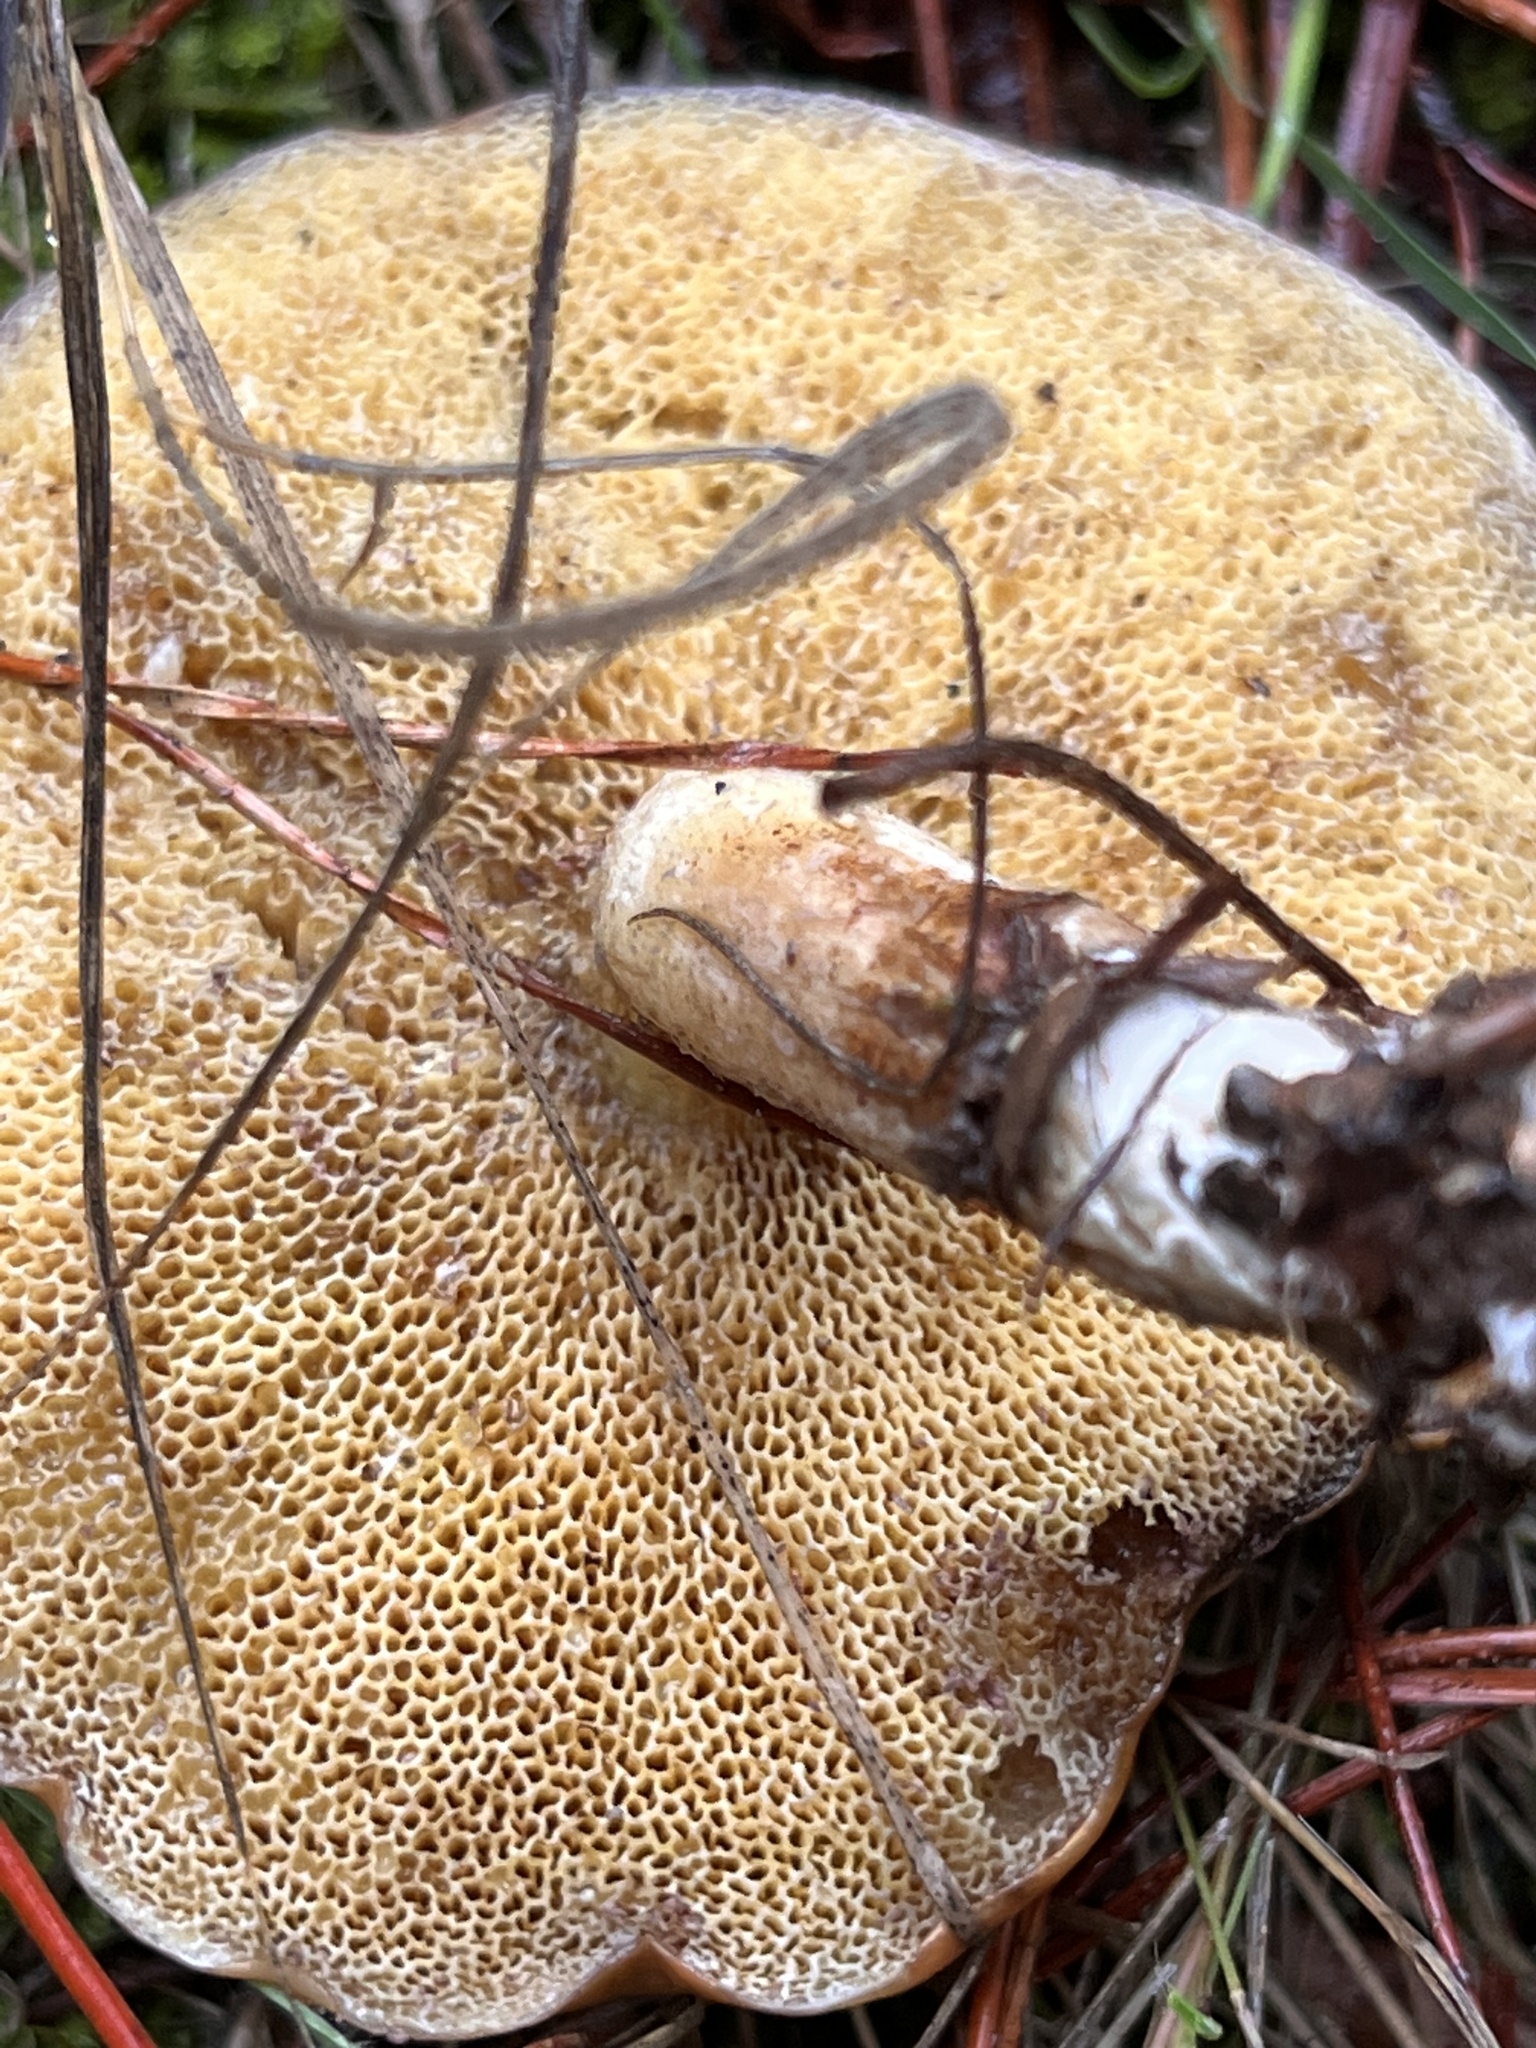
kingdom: Fungi
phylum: Basidiomycota
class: Agaricomycetes
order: Boletales
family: Suillaceae
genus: Suillus
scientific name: Suillus pungens
